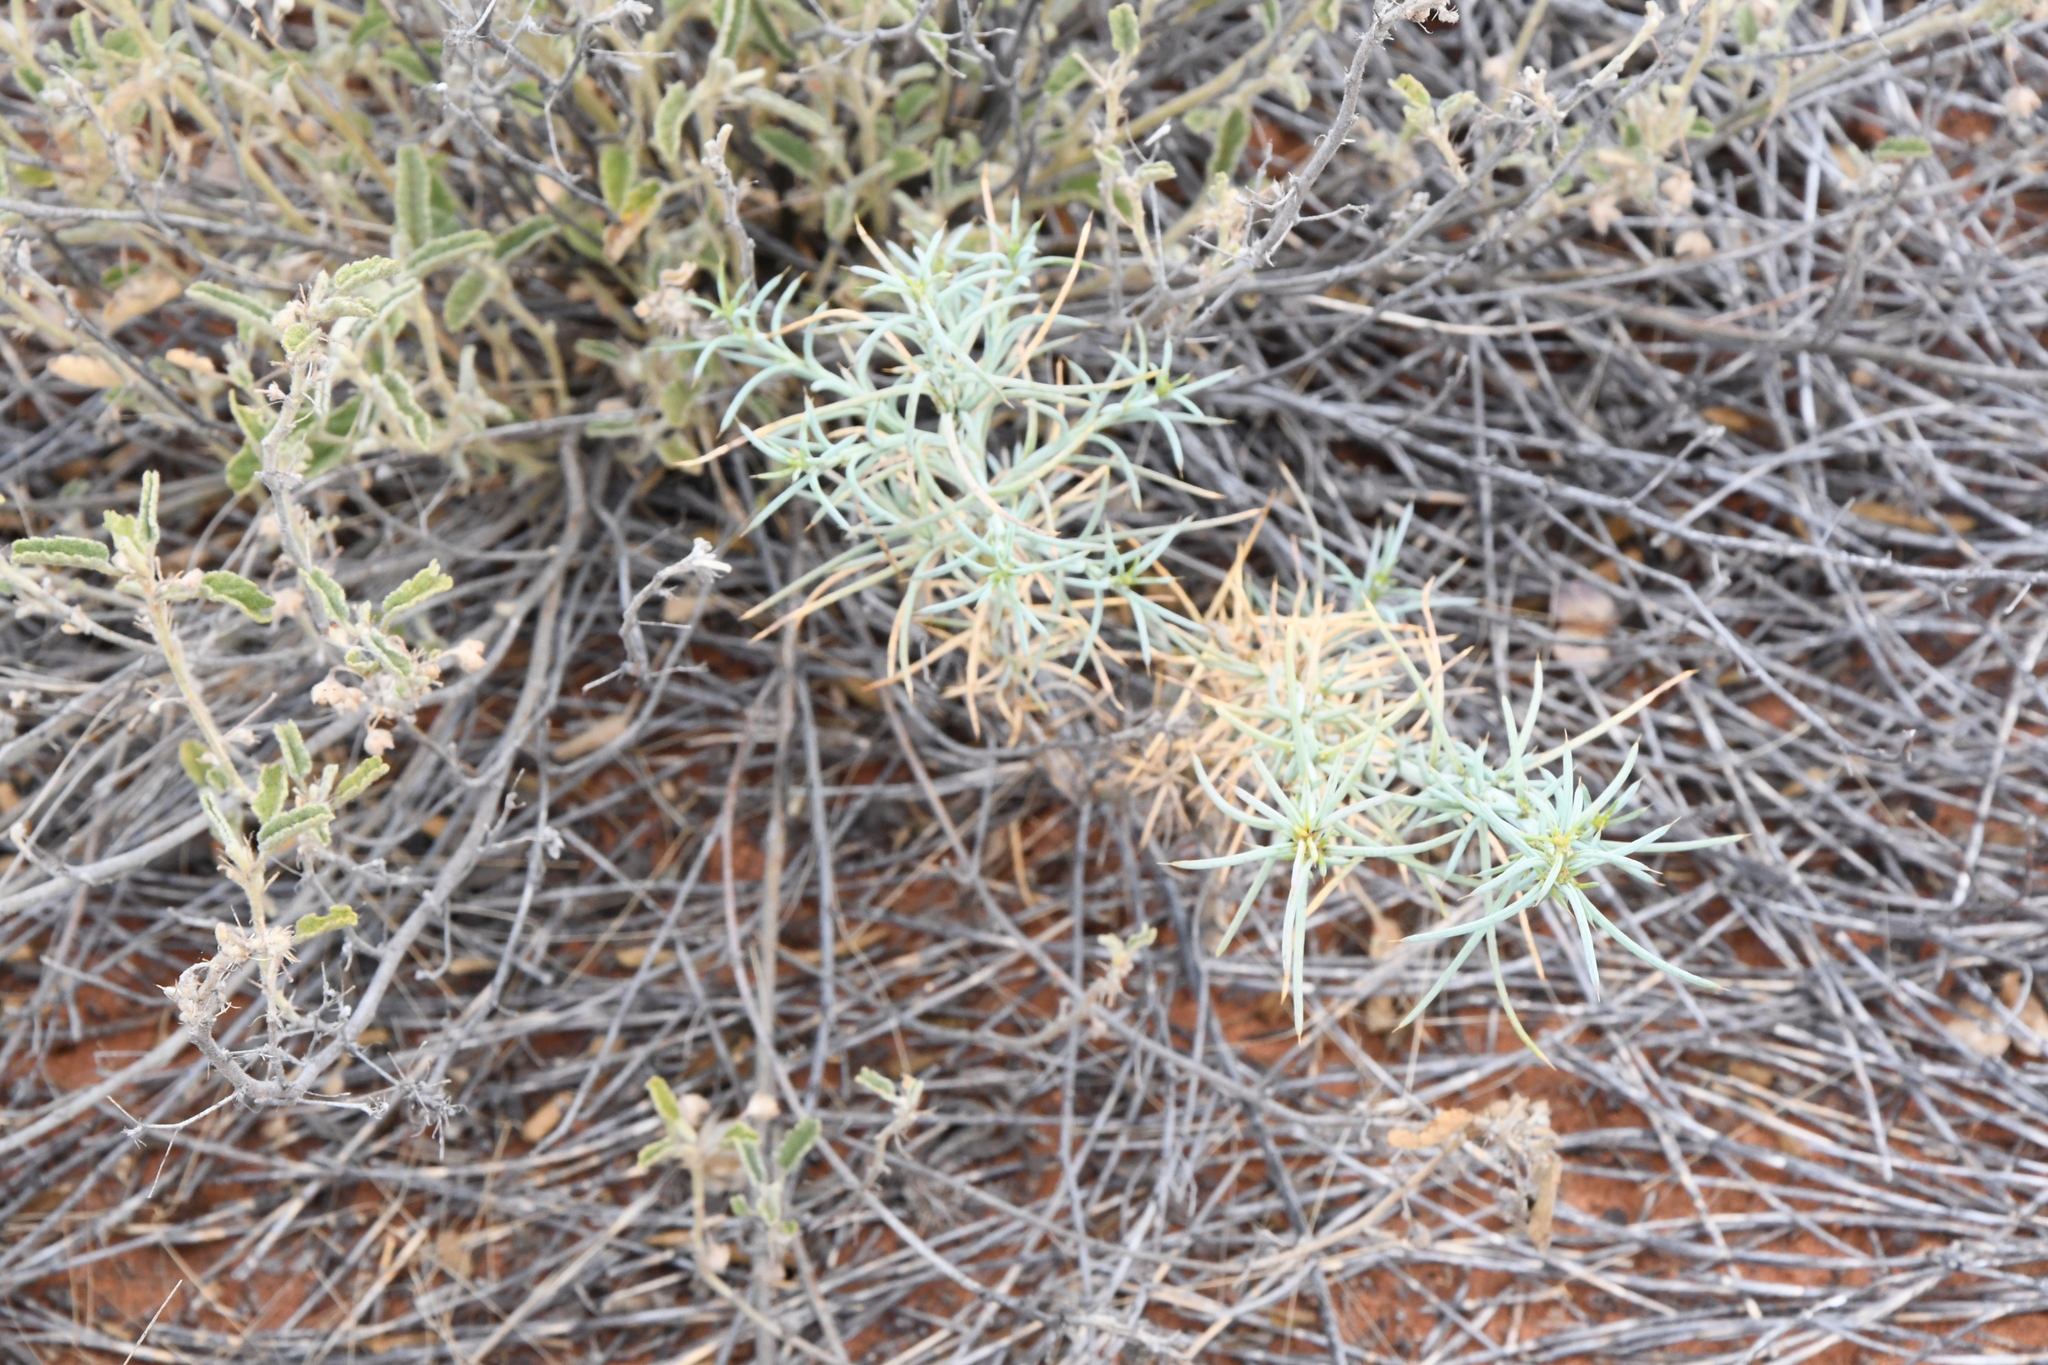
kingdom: Plantae
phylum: Tracheophyta
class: Magnoliopsida
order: Caryophyllales
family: Amaranthaceae
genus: Salsola
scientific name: Salsola australis
